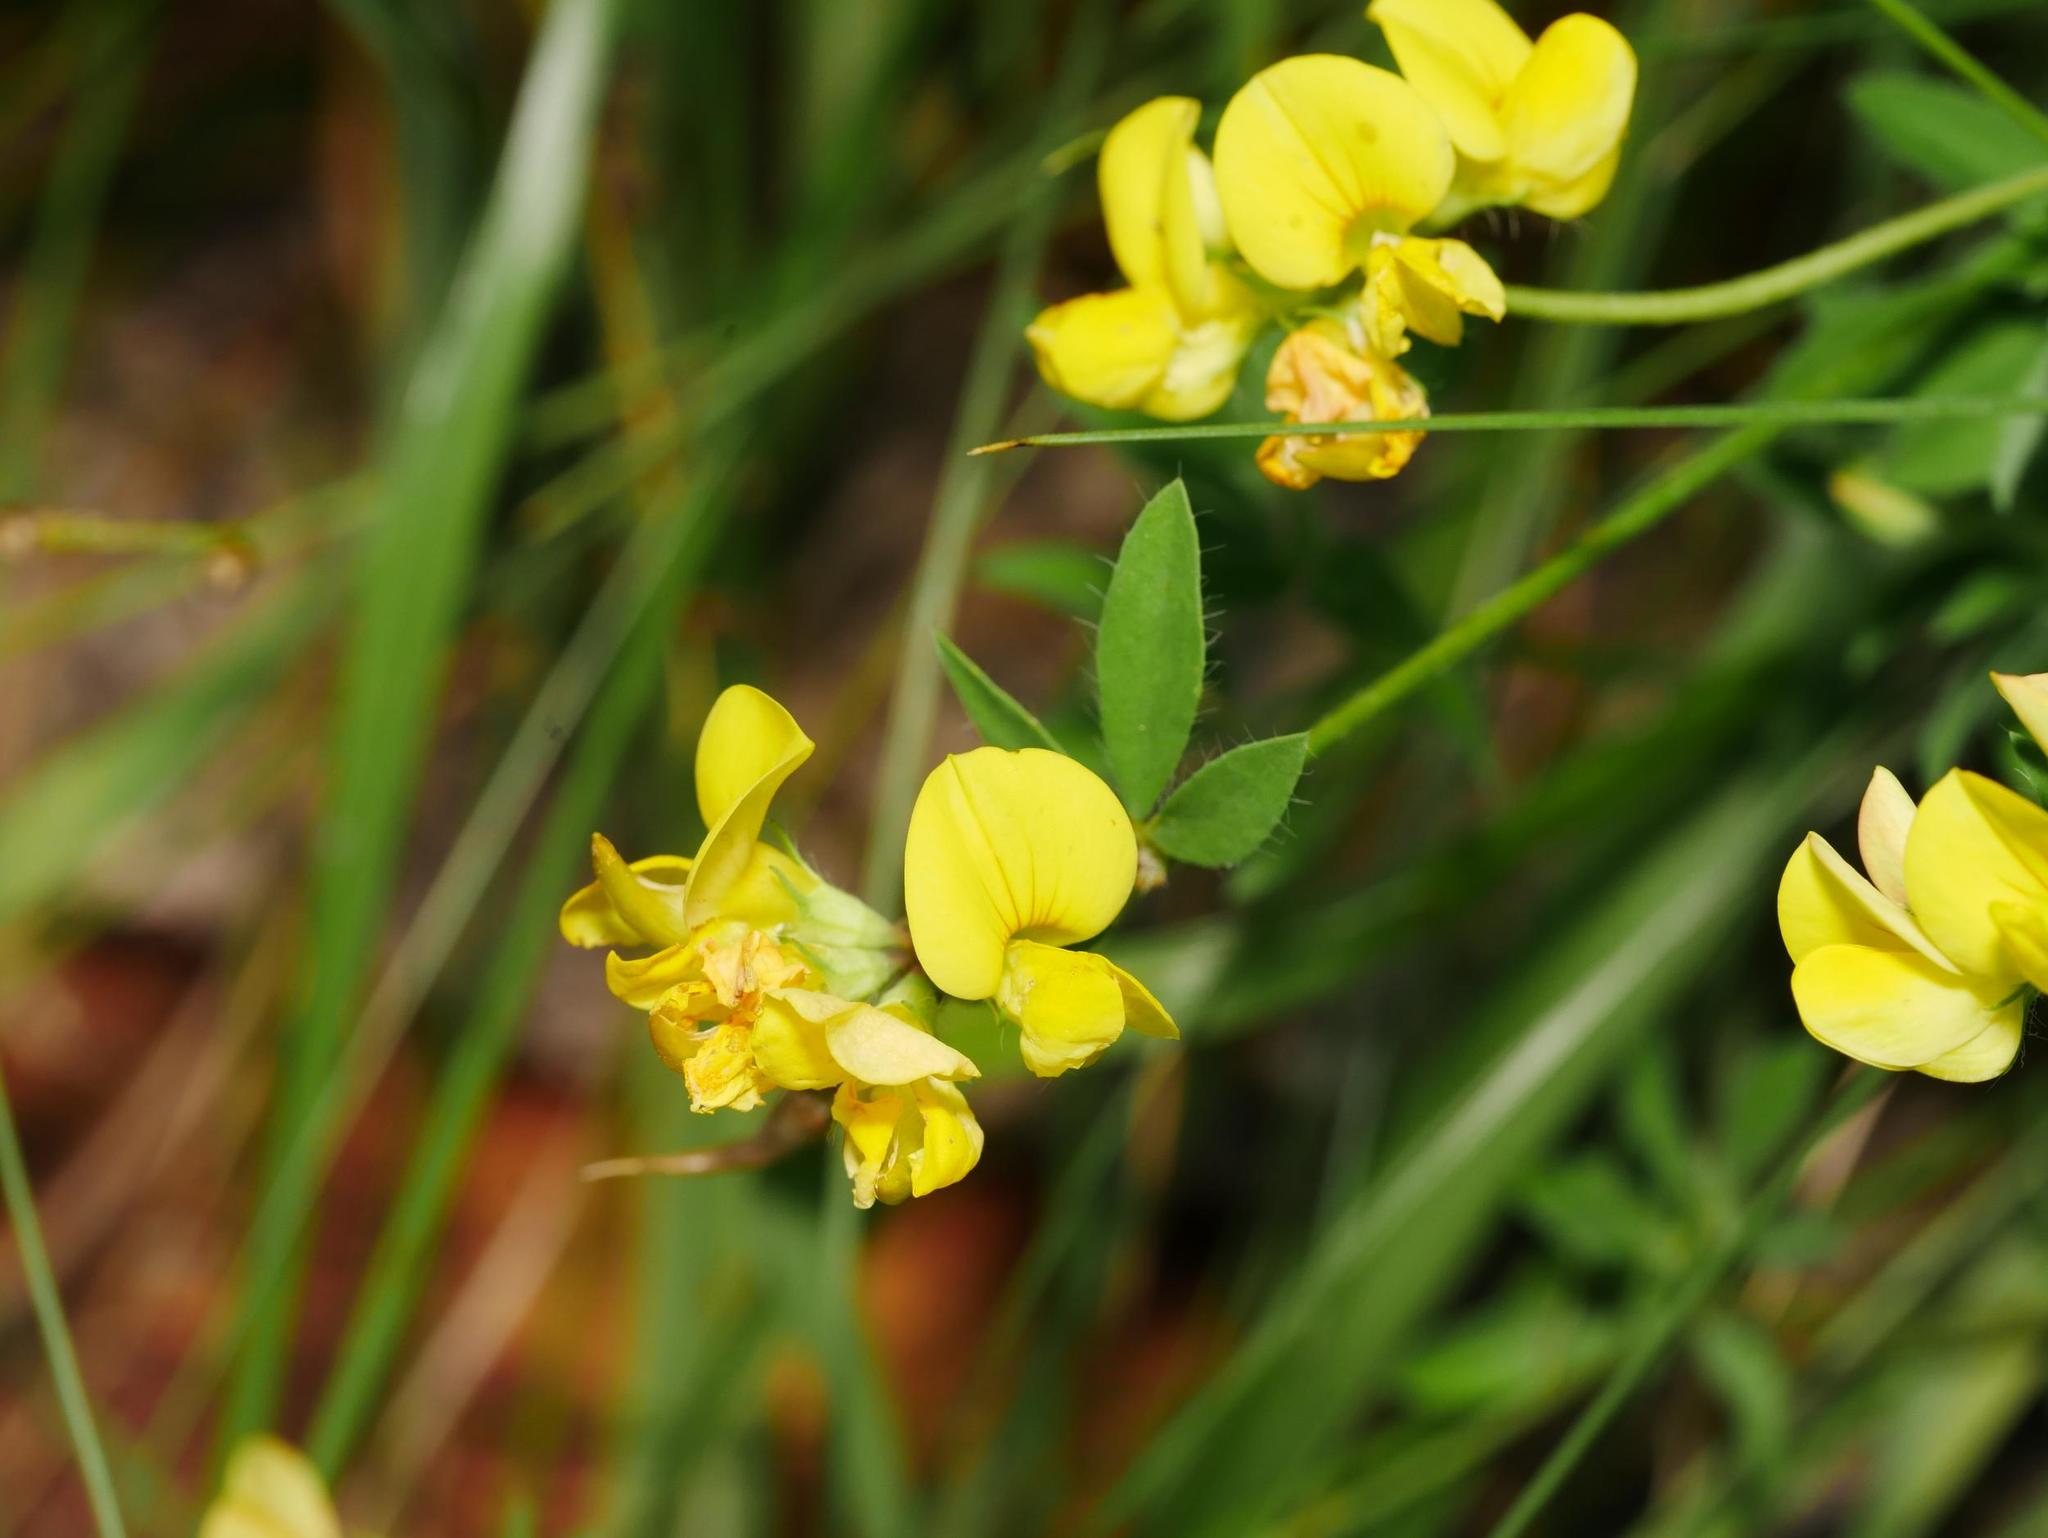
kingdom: Plantae
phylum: Tracheophyta
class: Magnoliopsida
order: Fabales
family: Fabaceae
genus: Lotus
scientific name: Lotus corniculatus
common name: Common bird's-foot-trefoil
